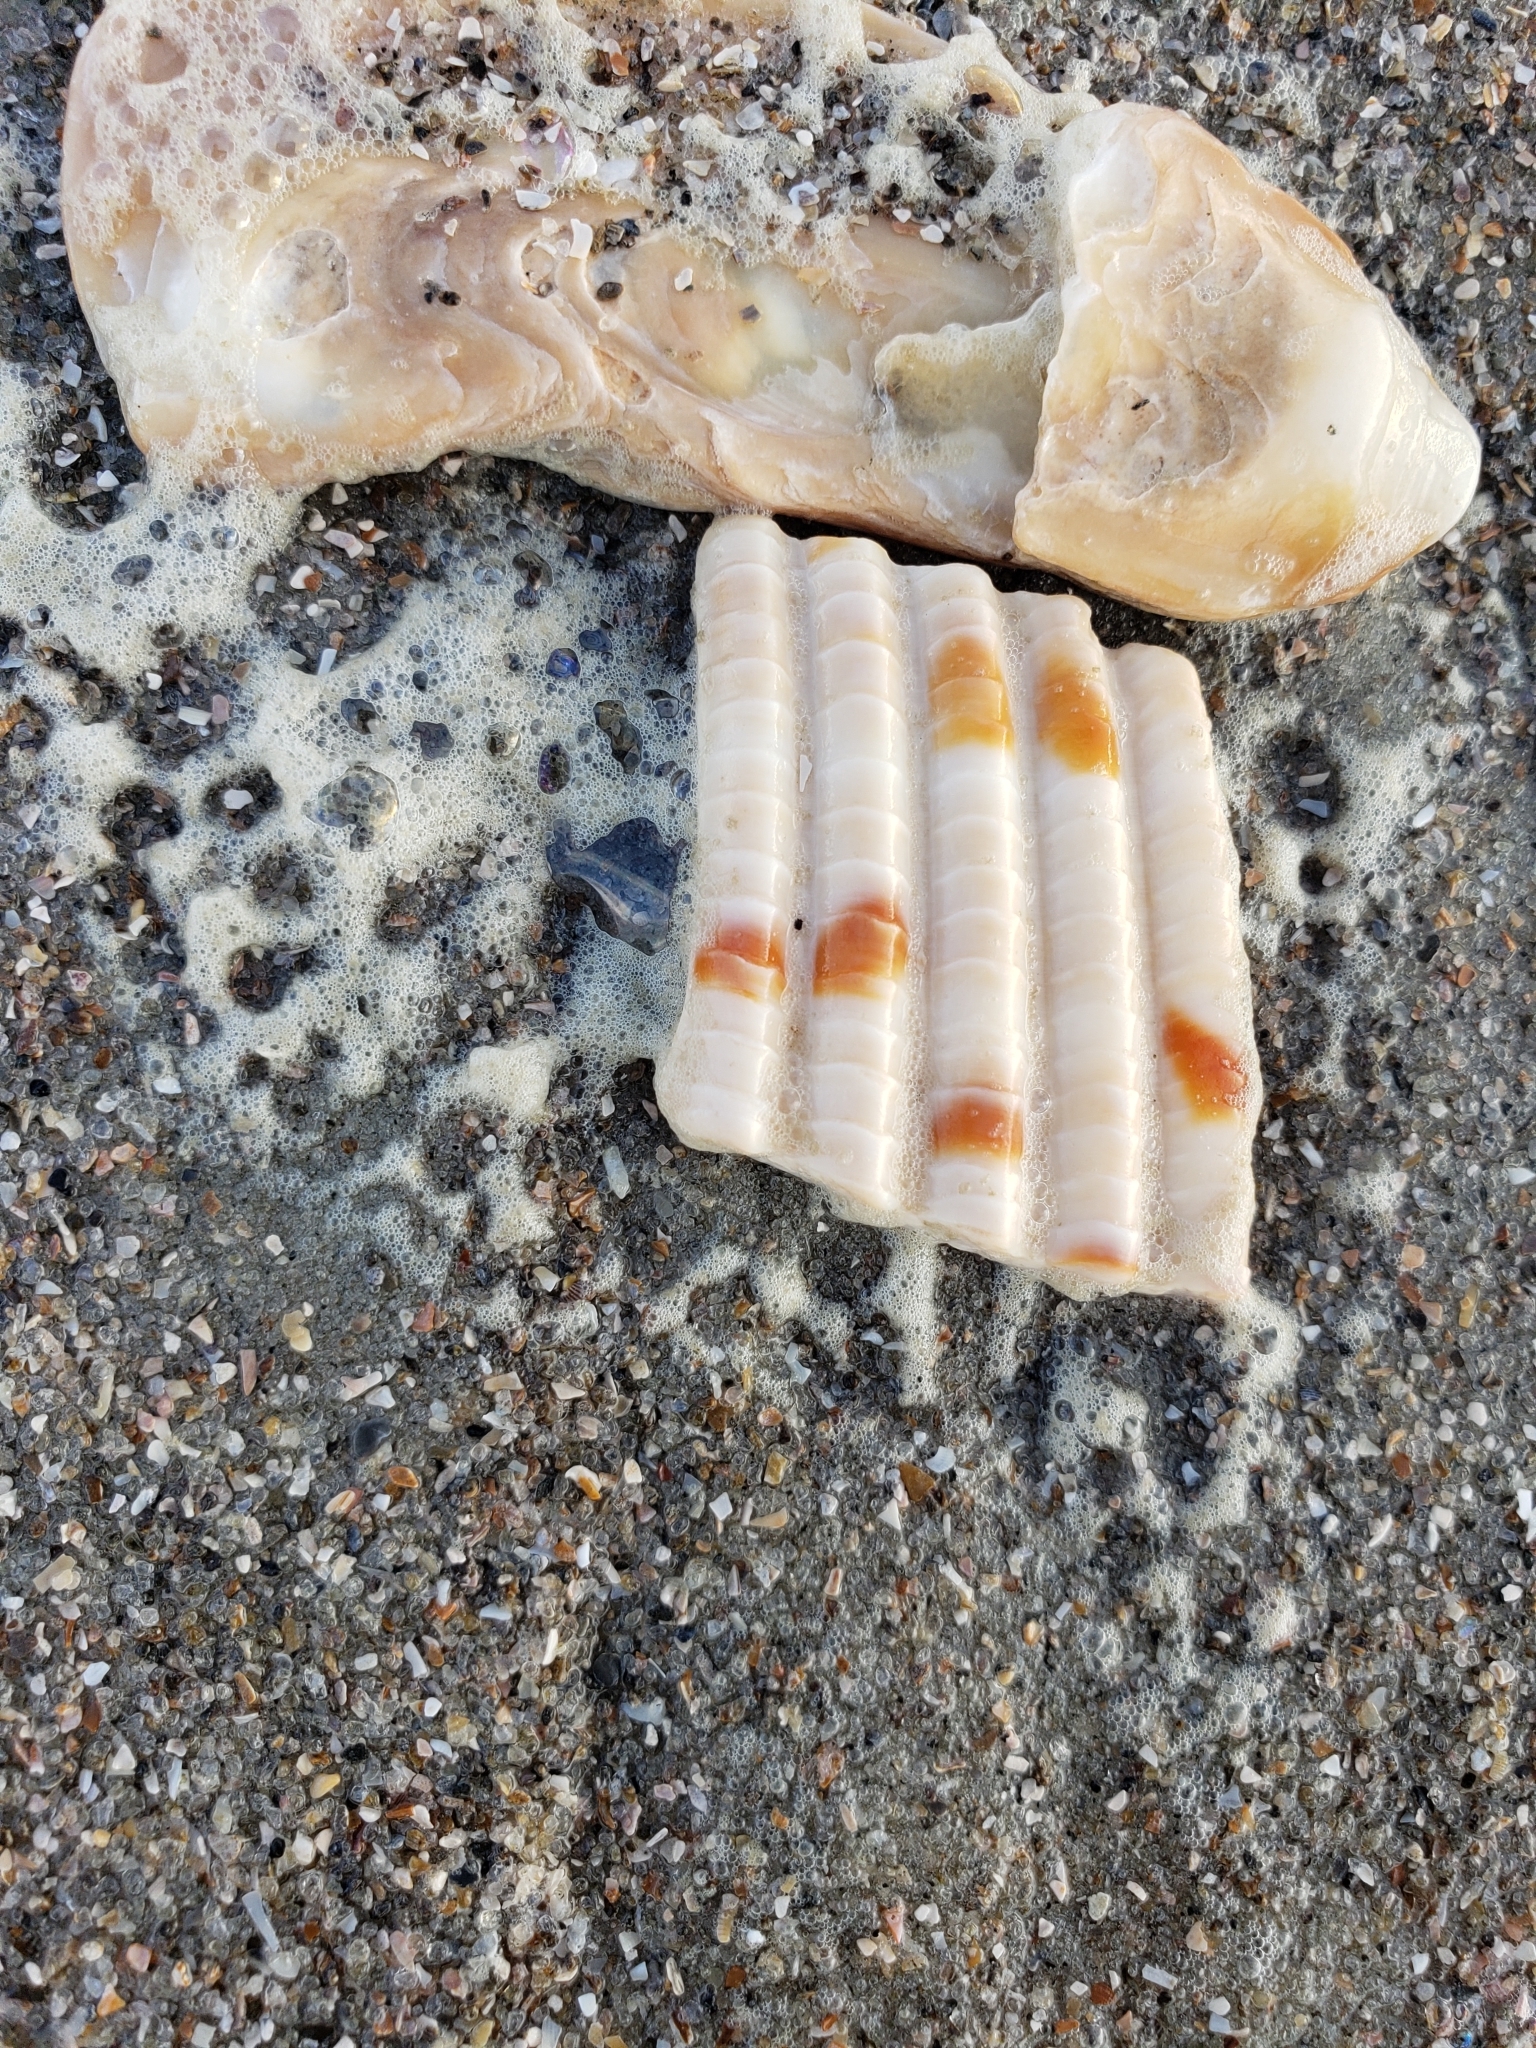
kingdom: Animalia
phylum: Mollusca
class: Bivalvia
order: Cardiida
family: Cardiidae
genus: Dinocardium
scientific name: Dinocardium robustum
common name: Atlantic giant cockle
